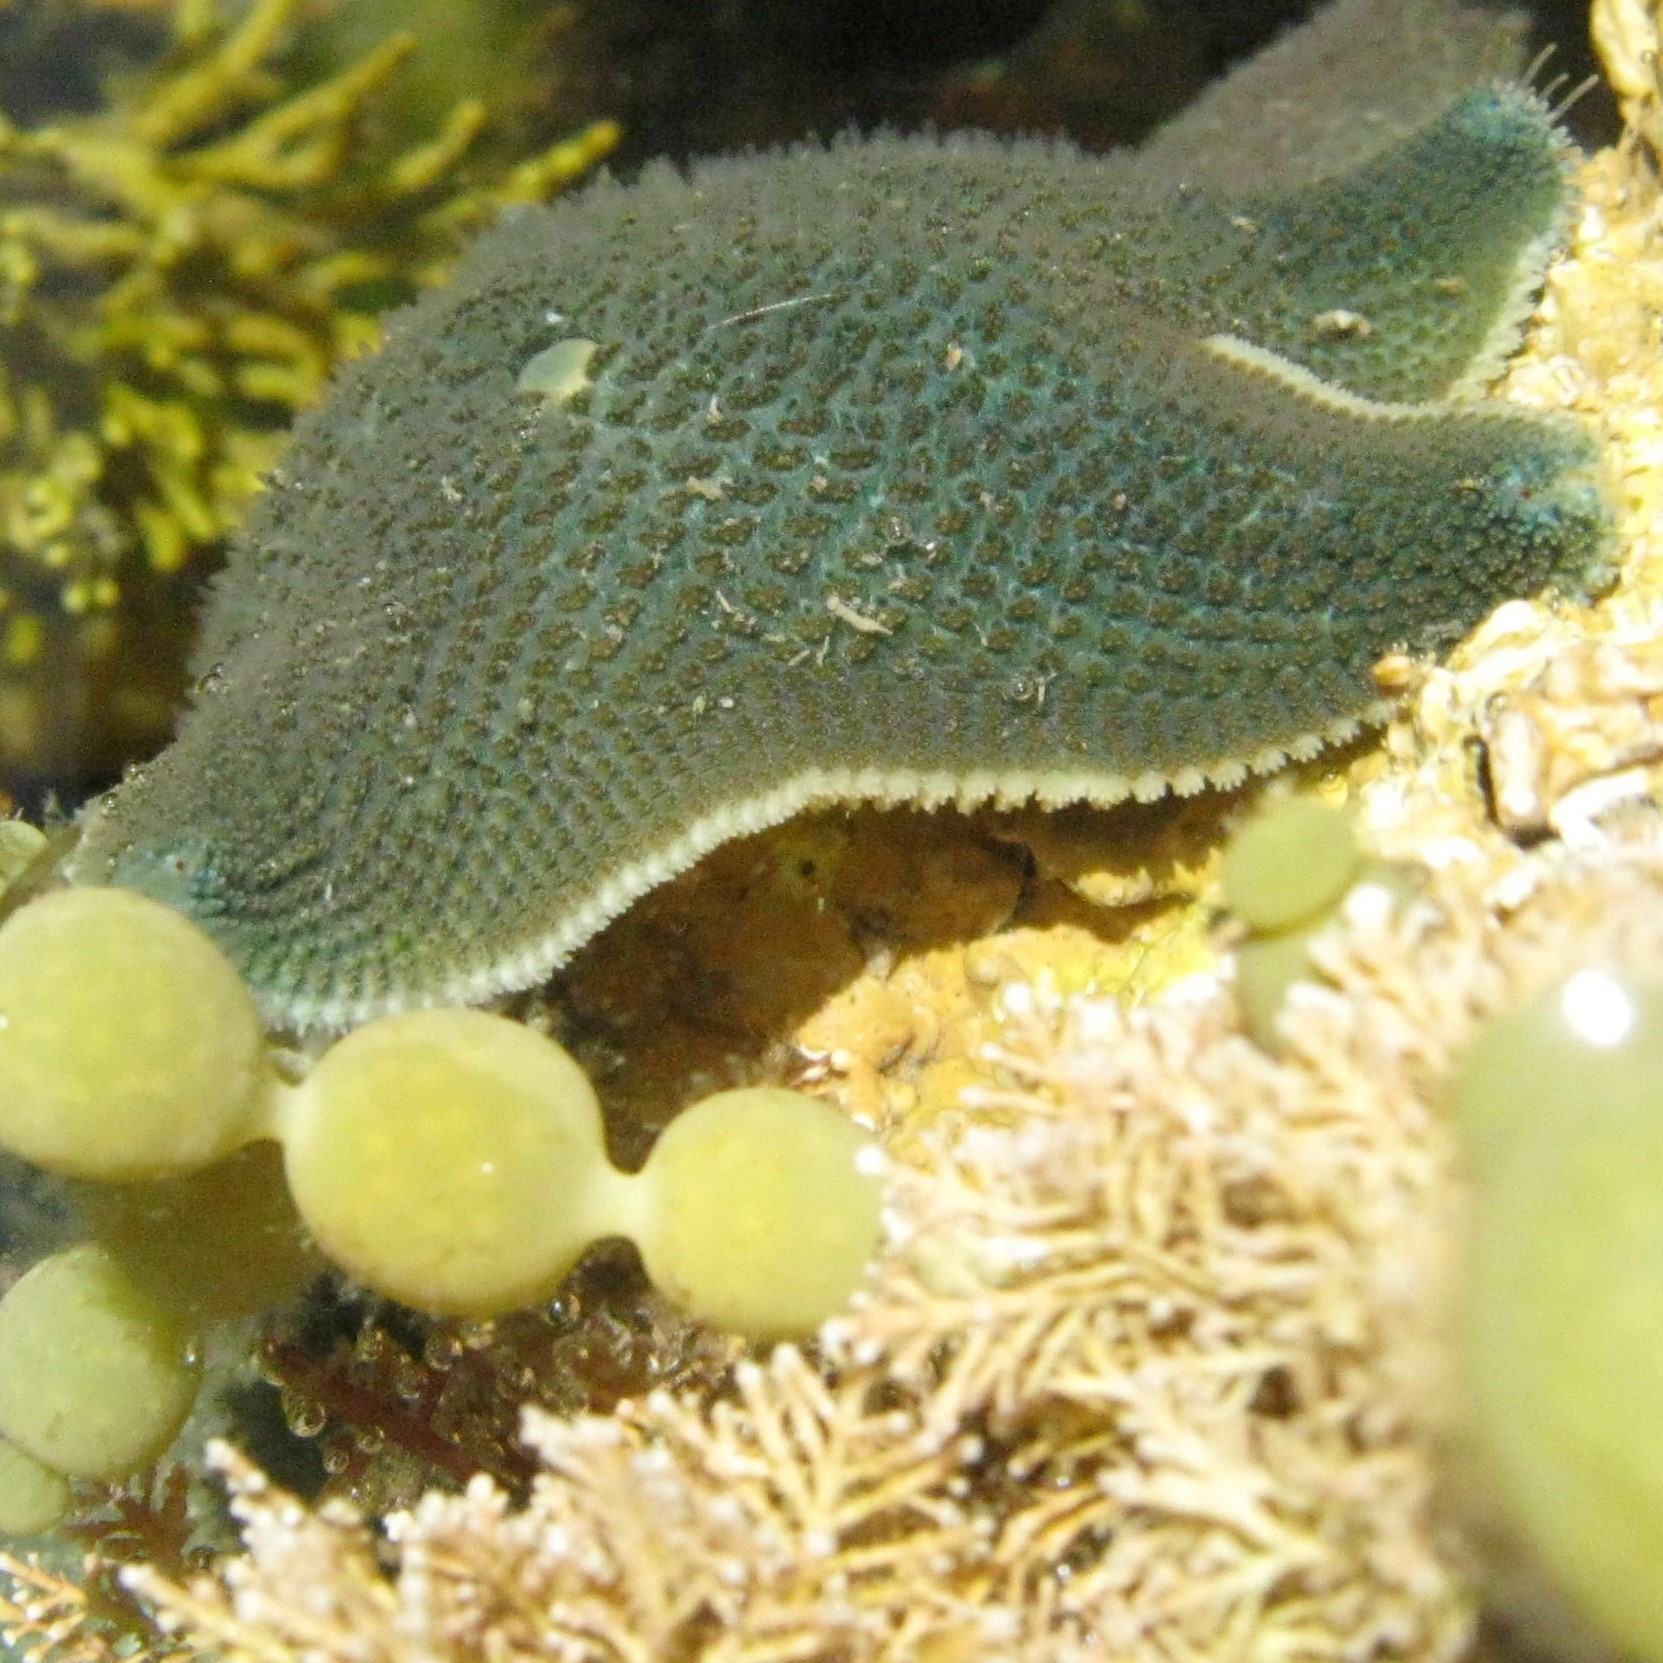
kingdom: Animalia
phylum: Echinodermata
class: Asteroidea
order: Valvatida
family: Asterinidae
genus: Patiriella
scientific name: Patiriella regularis
